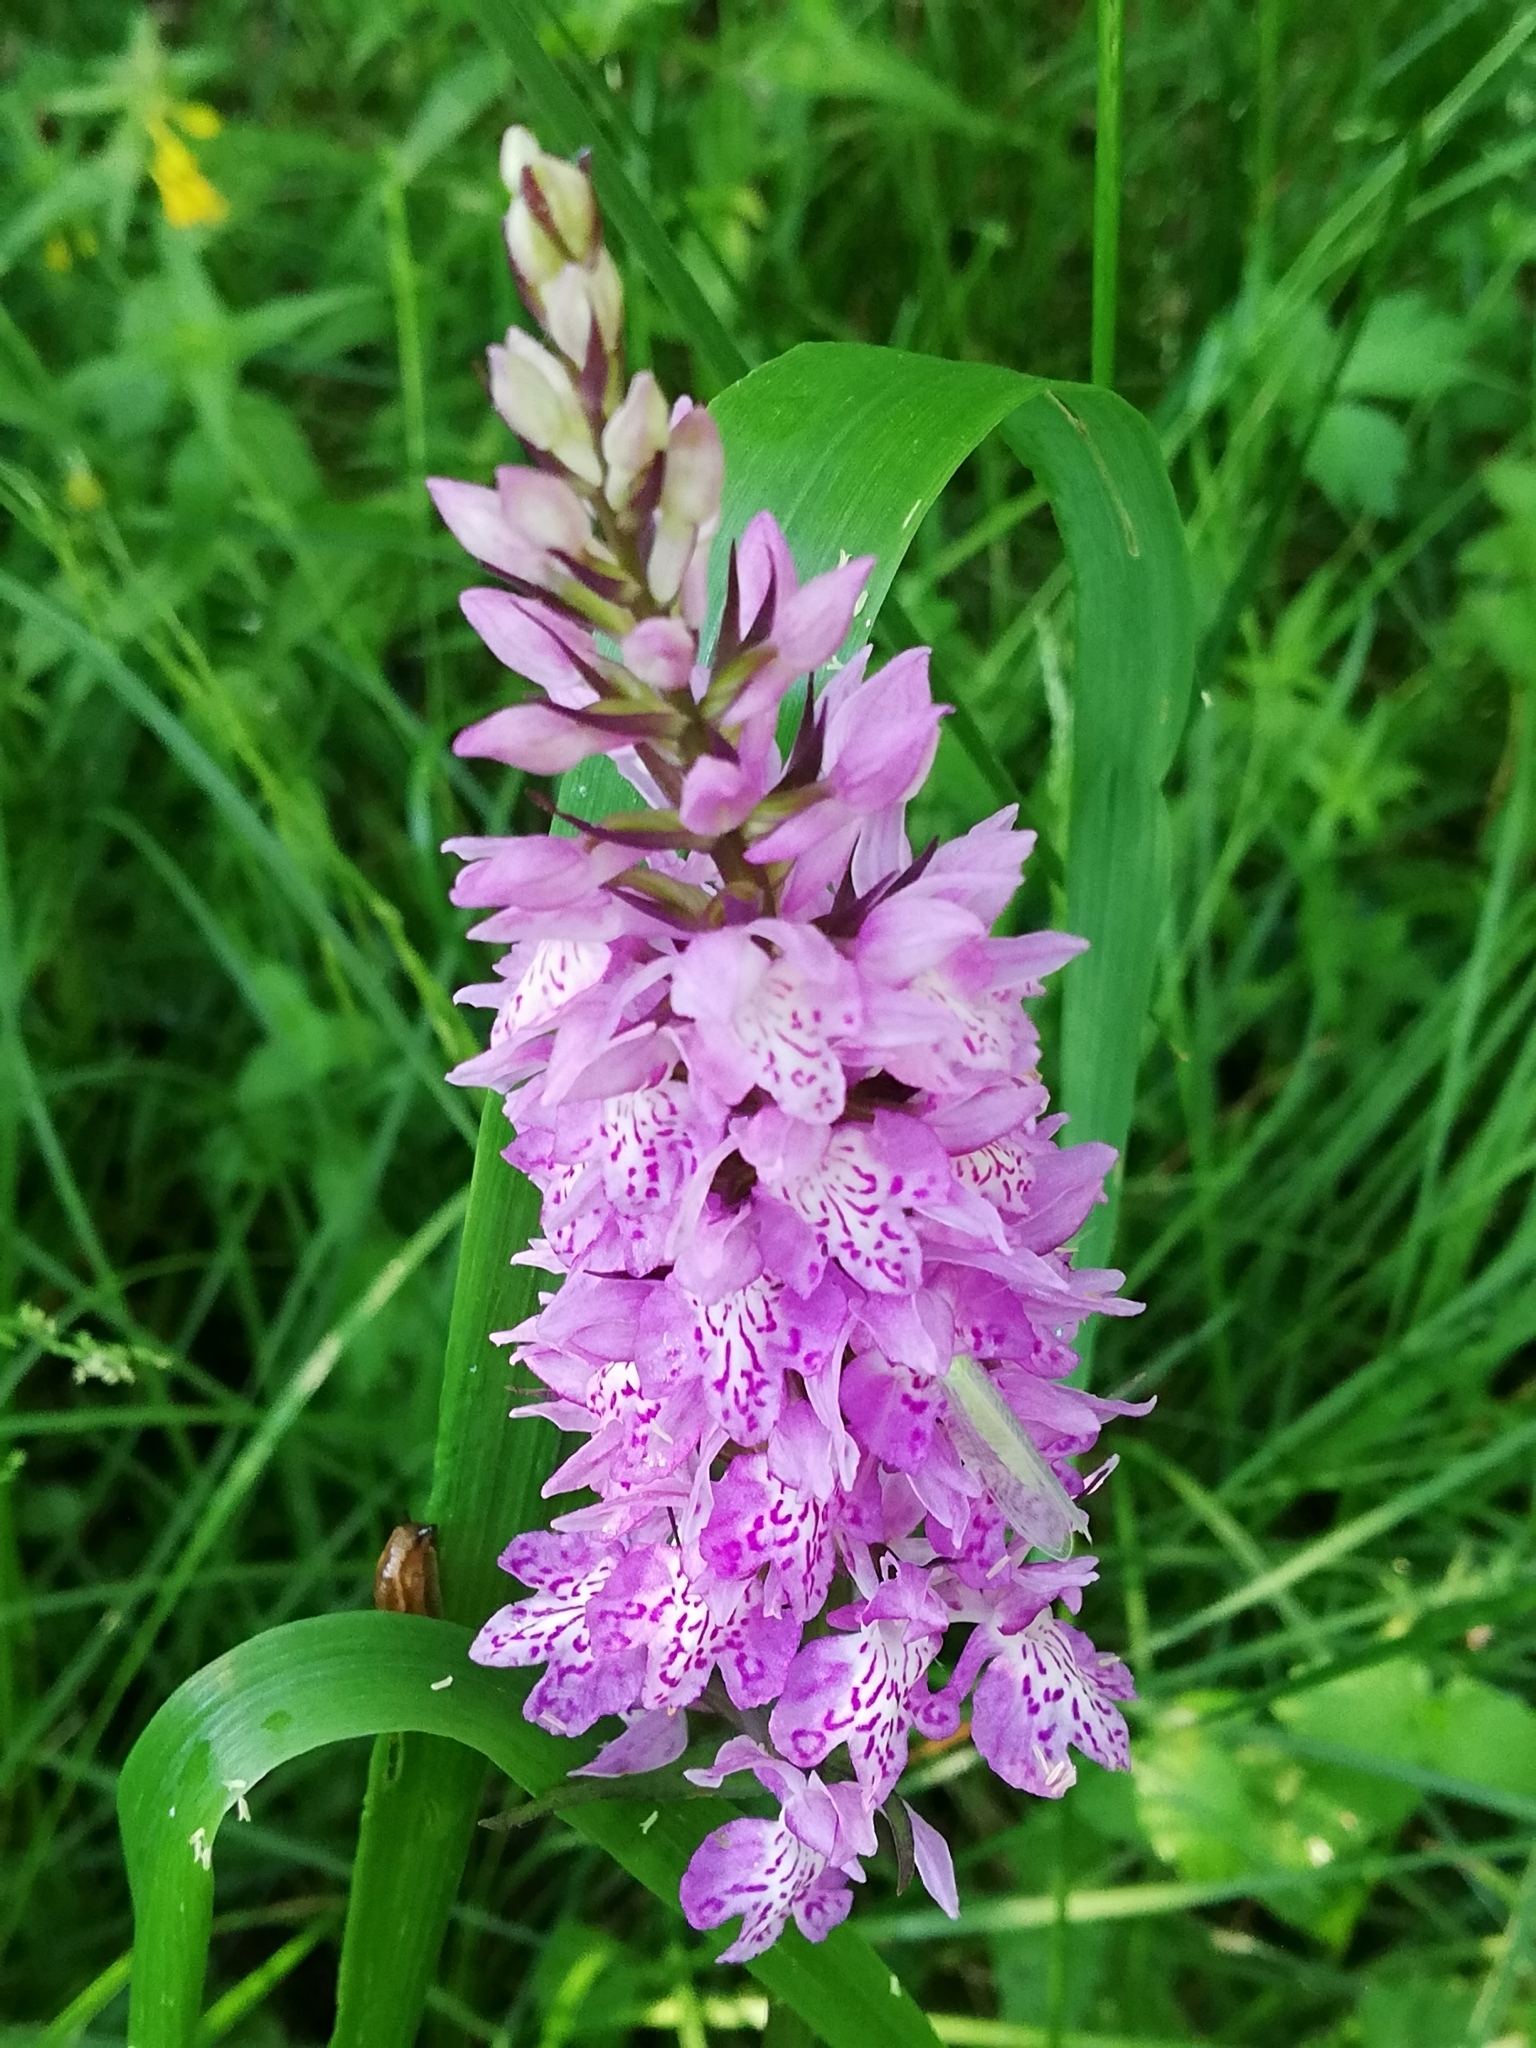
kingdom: Plantae
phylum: Tracheophyta
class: Liliopsida
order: Asparagales
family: Orchidaceae
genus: Dactylorhiza
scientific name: Dactylorhiza maculata
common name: Heath spotted-orchid
